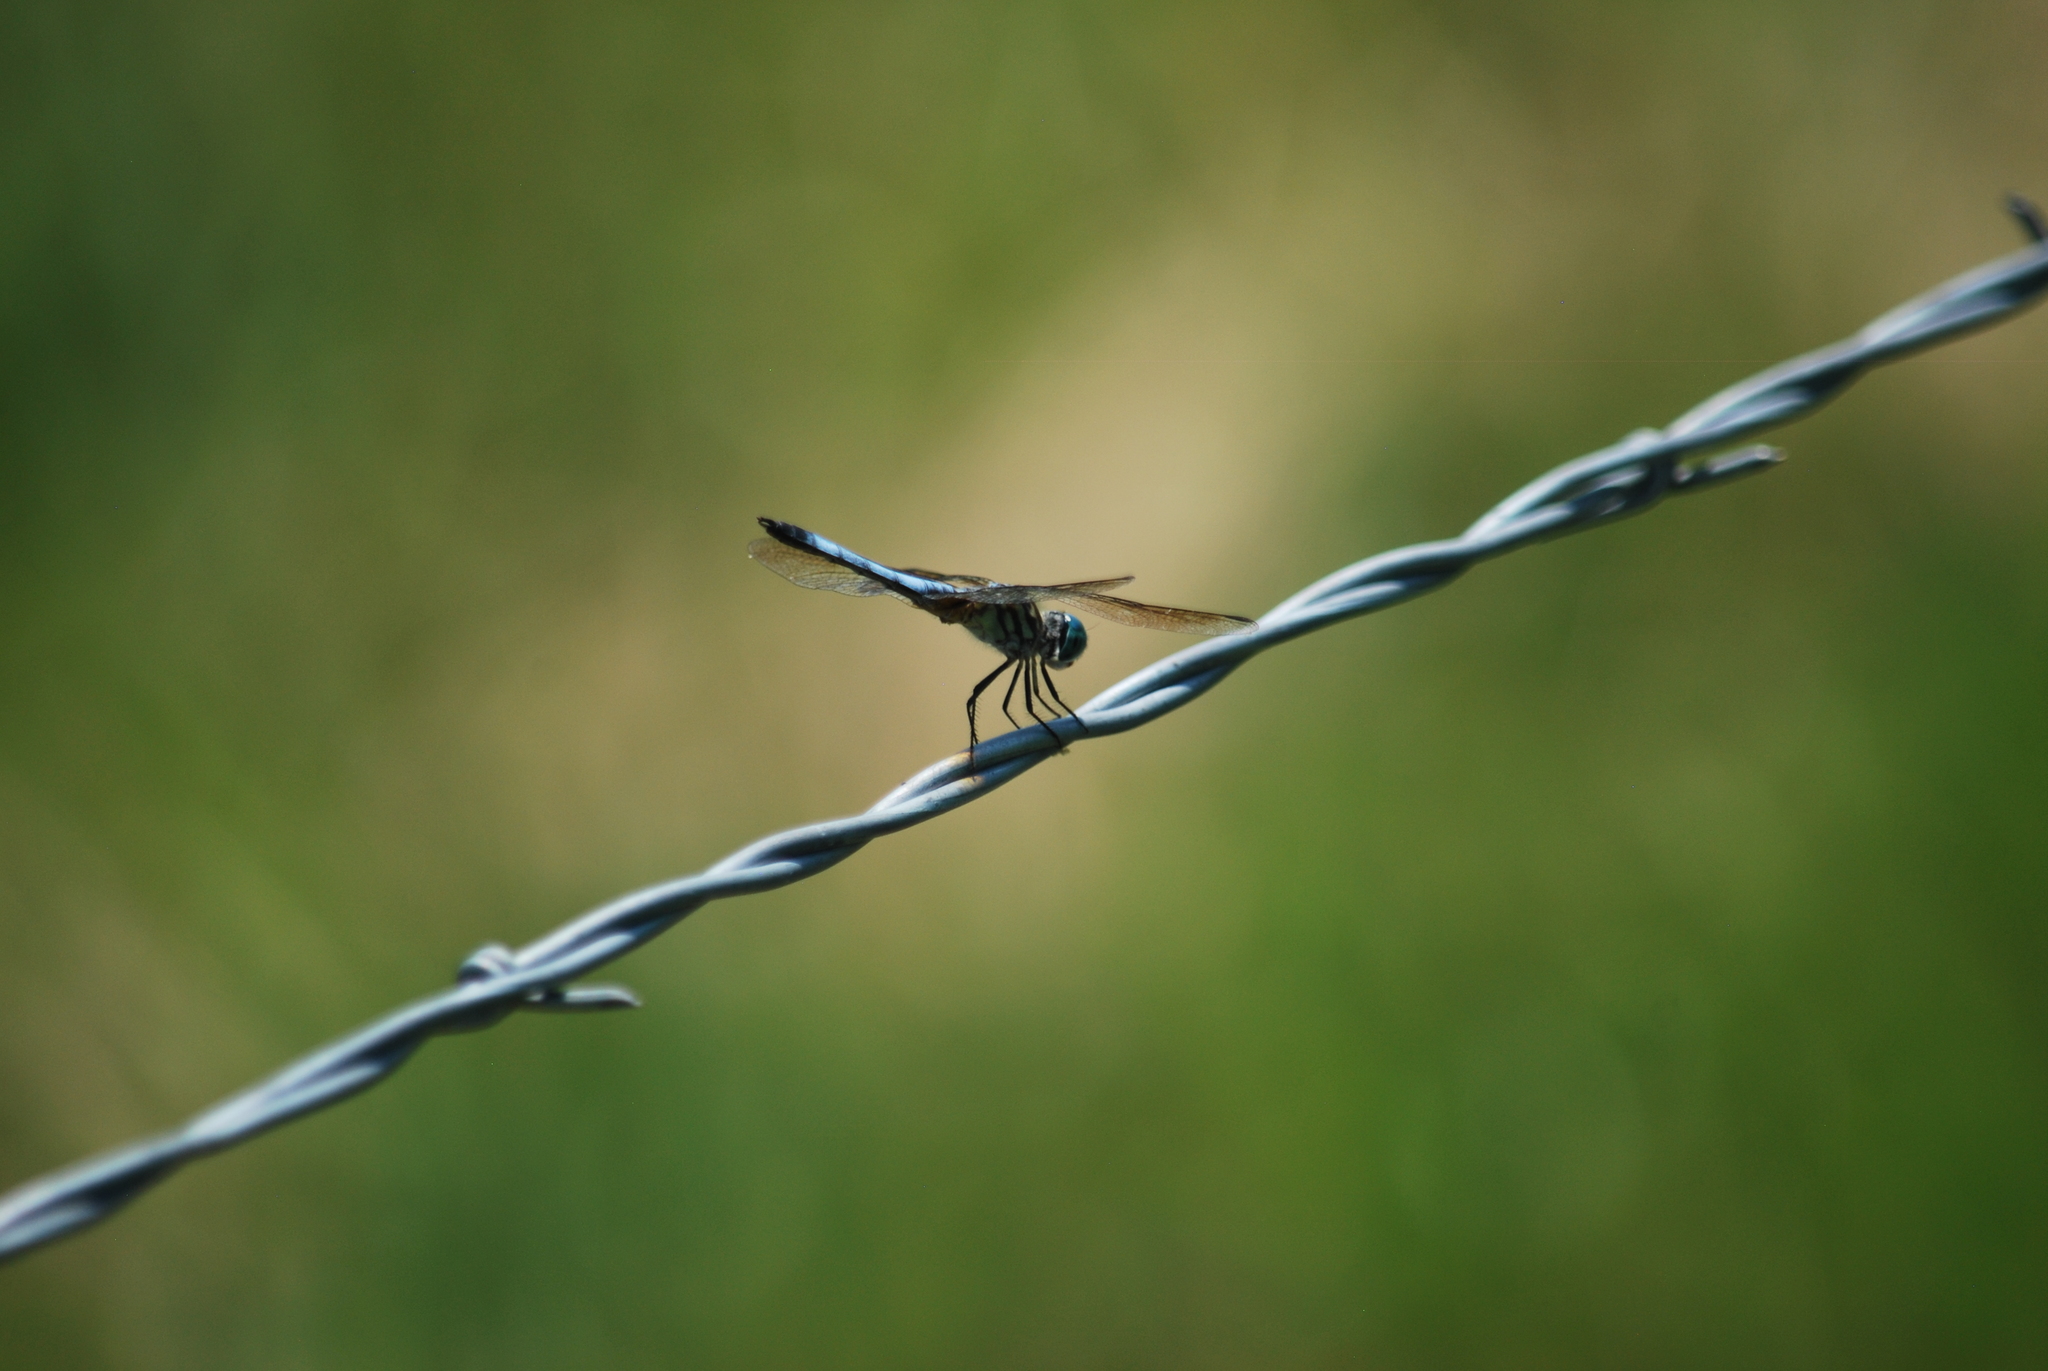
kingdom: Animalia
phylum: Arthropoda
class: Insecta
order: Odonata
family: Libellulidae
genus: Pachydiplax
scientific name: Pachydiplax longipennis
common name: Blue dasher
